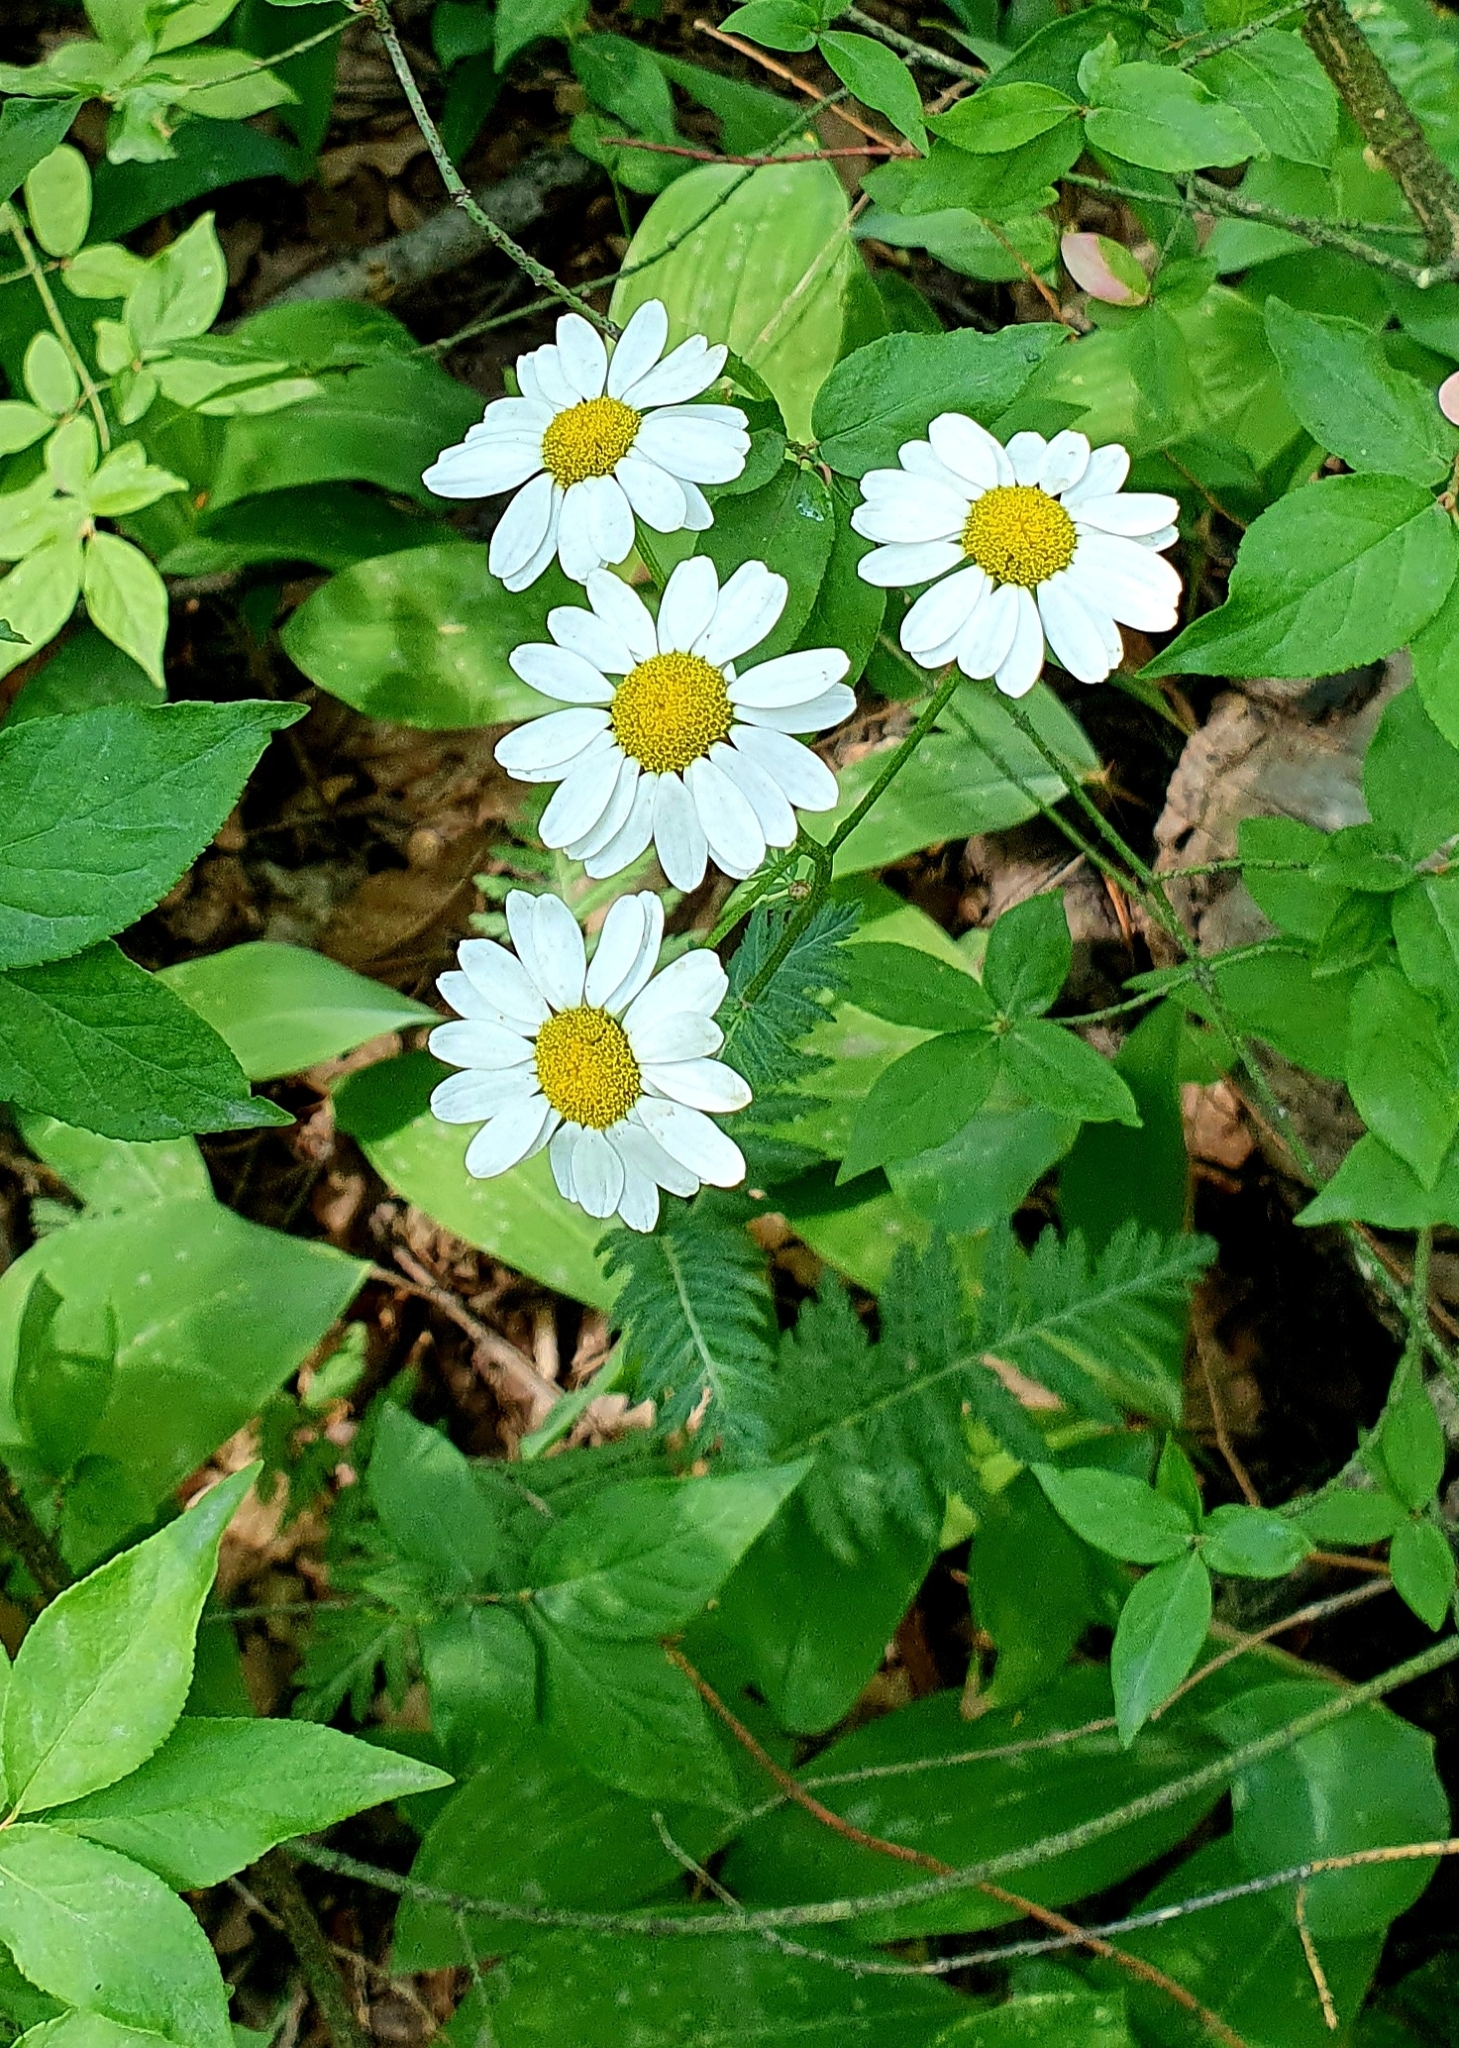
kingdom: Plantae
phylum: Tracheophyta
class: Magnoliopsida
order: Asterales
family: Asteraceae
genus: Tanacetum
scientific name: Tanacetum corymbosum
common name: Scentless feverfew
